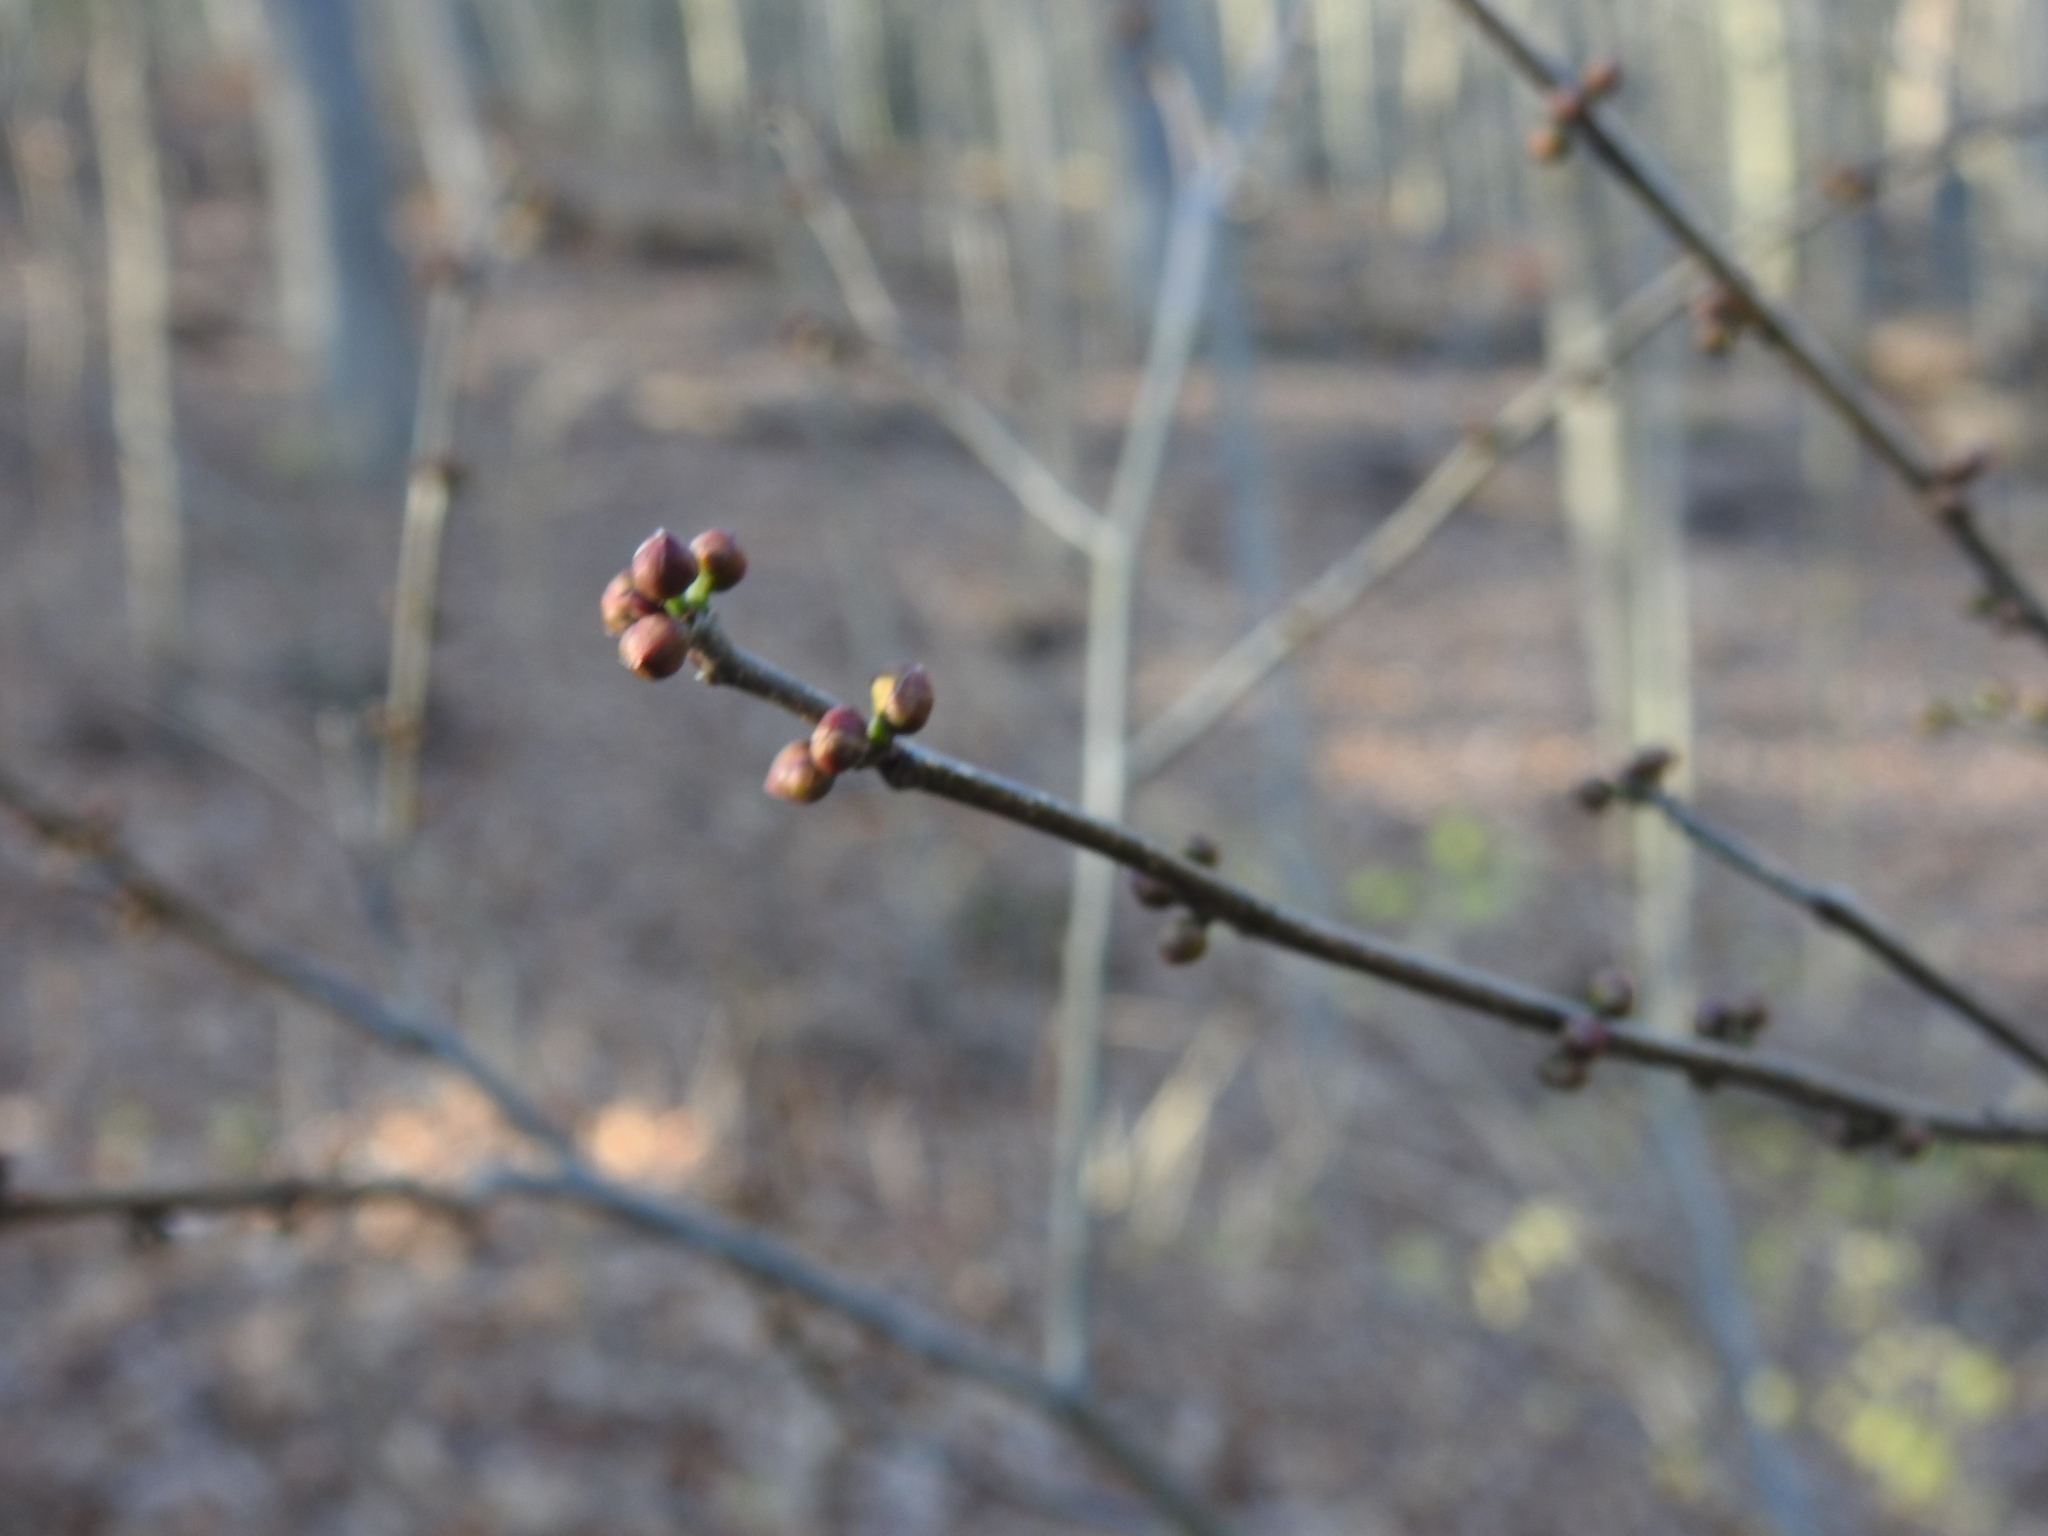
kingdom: Plantae
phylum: Tracheophyta
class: Magnoliopsida
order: Laurales
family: Lauraceae
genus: Lindera
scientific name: Lindera benzoin
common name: Spicebush
